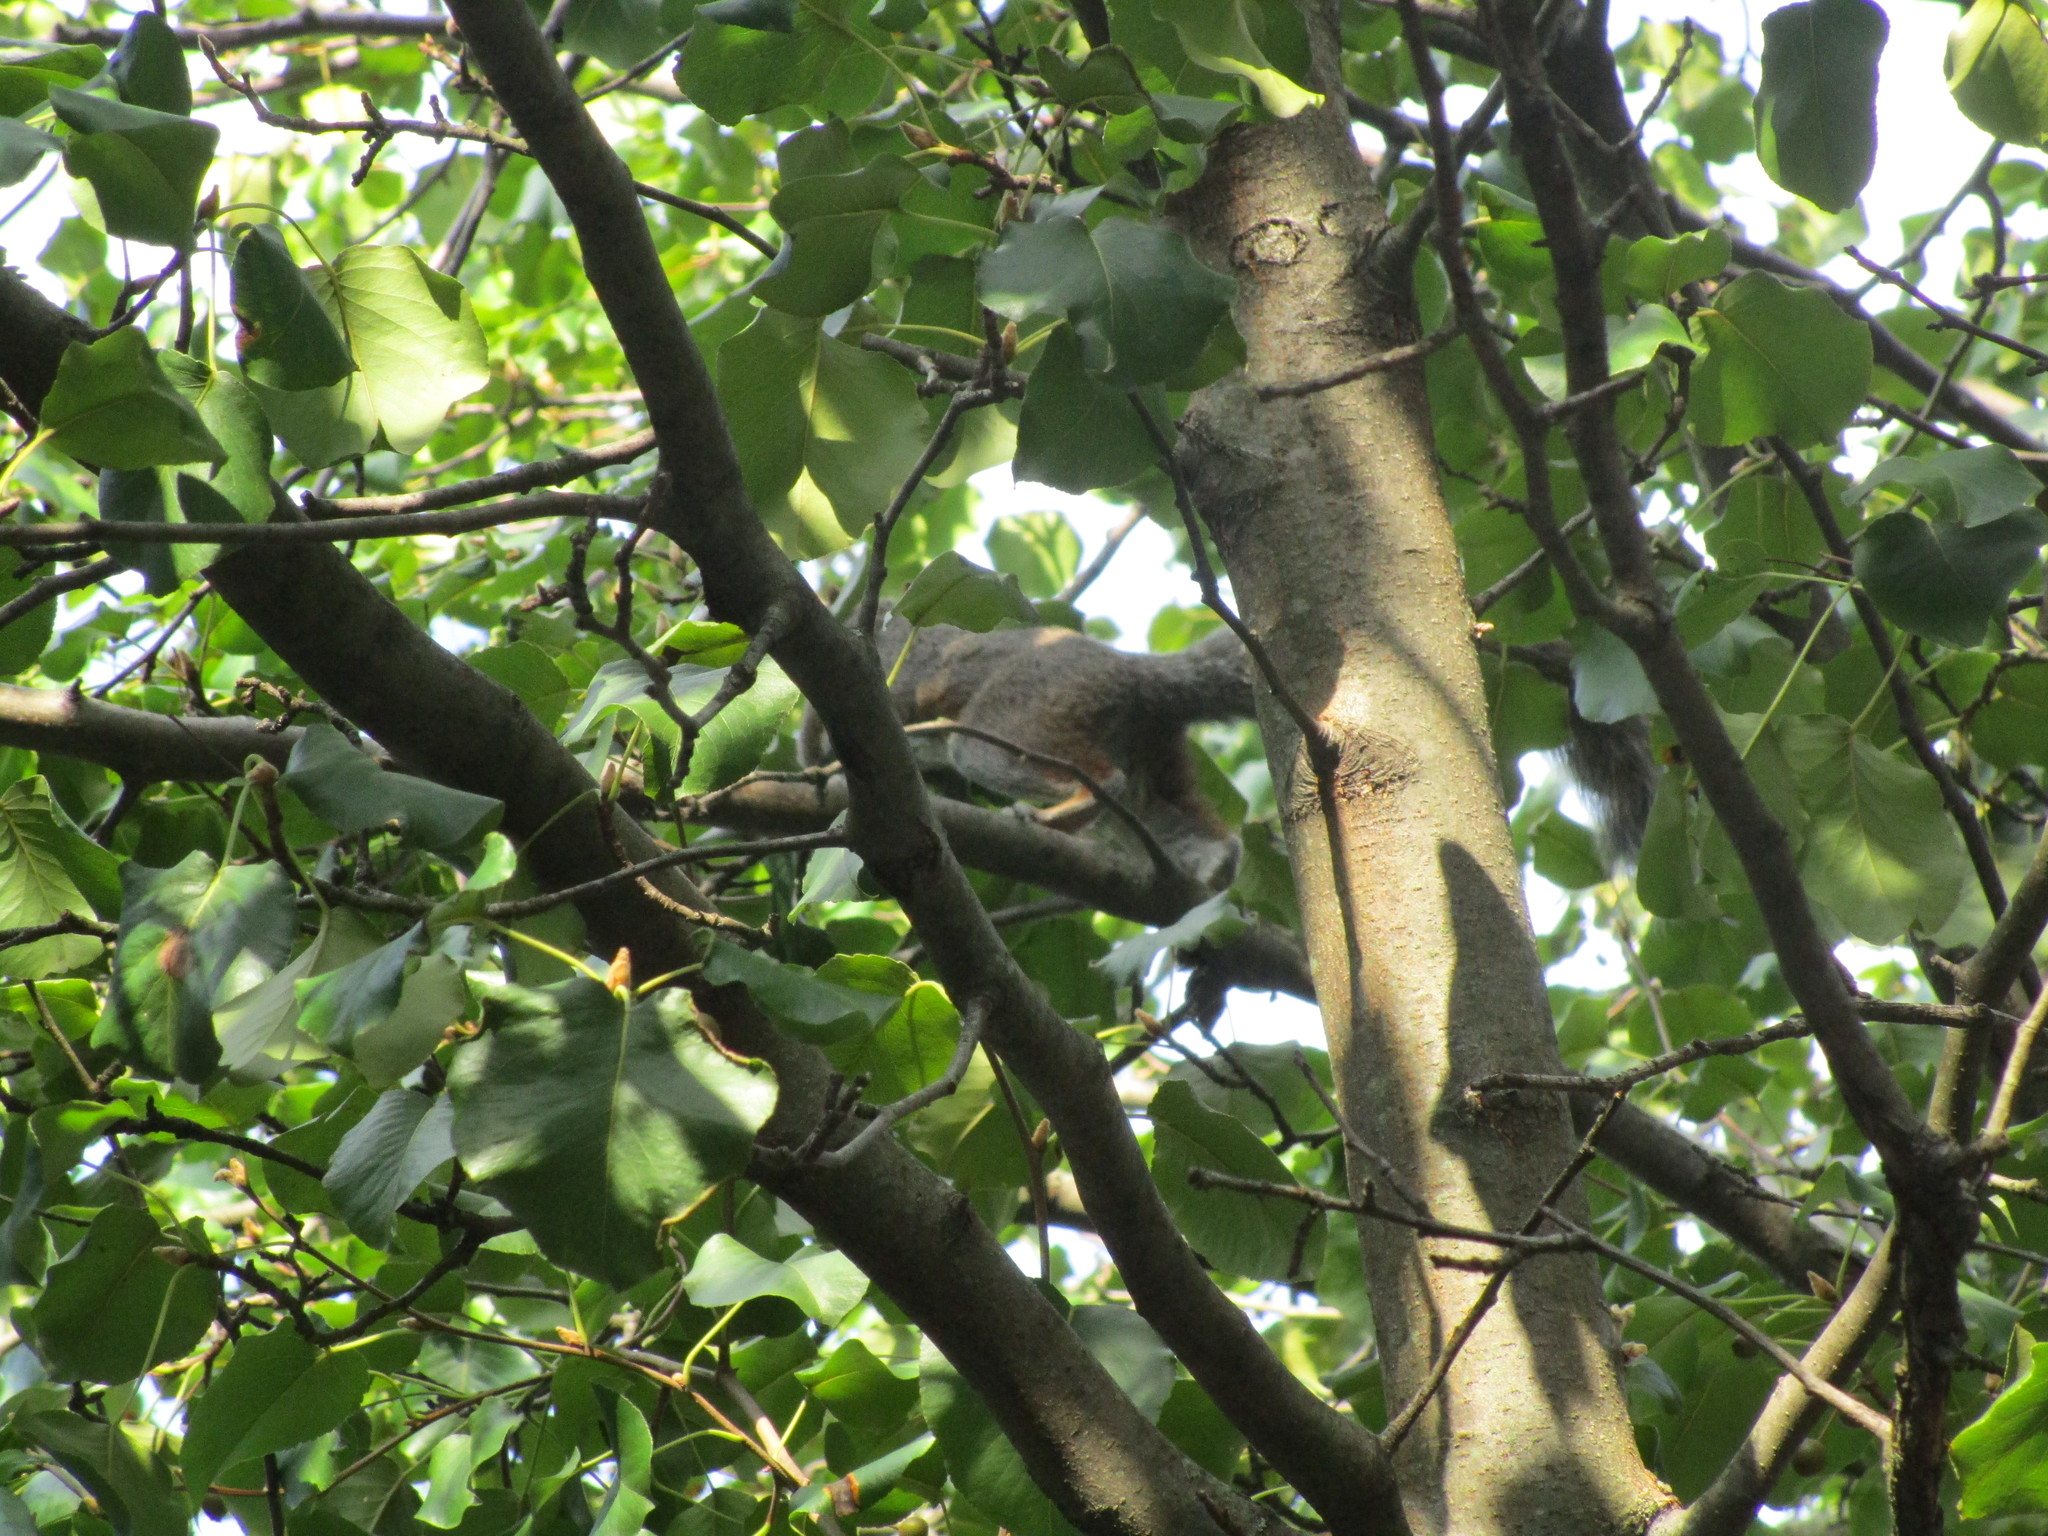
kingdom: Animalia
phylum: Chordata
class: Mammalia
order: Rodentia
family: Sciuridae
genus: Sciurus
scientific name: Sciurus carolinensis
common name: Eastern gray squirrel
